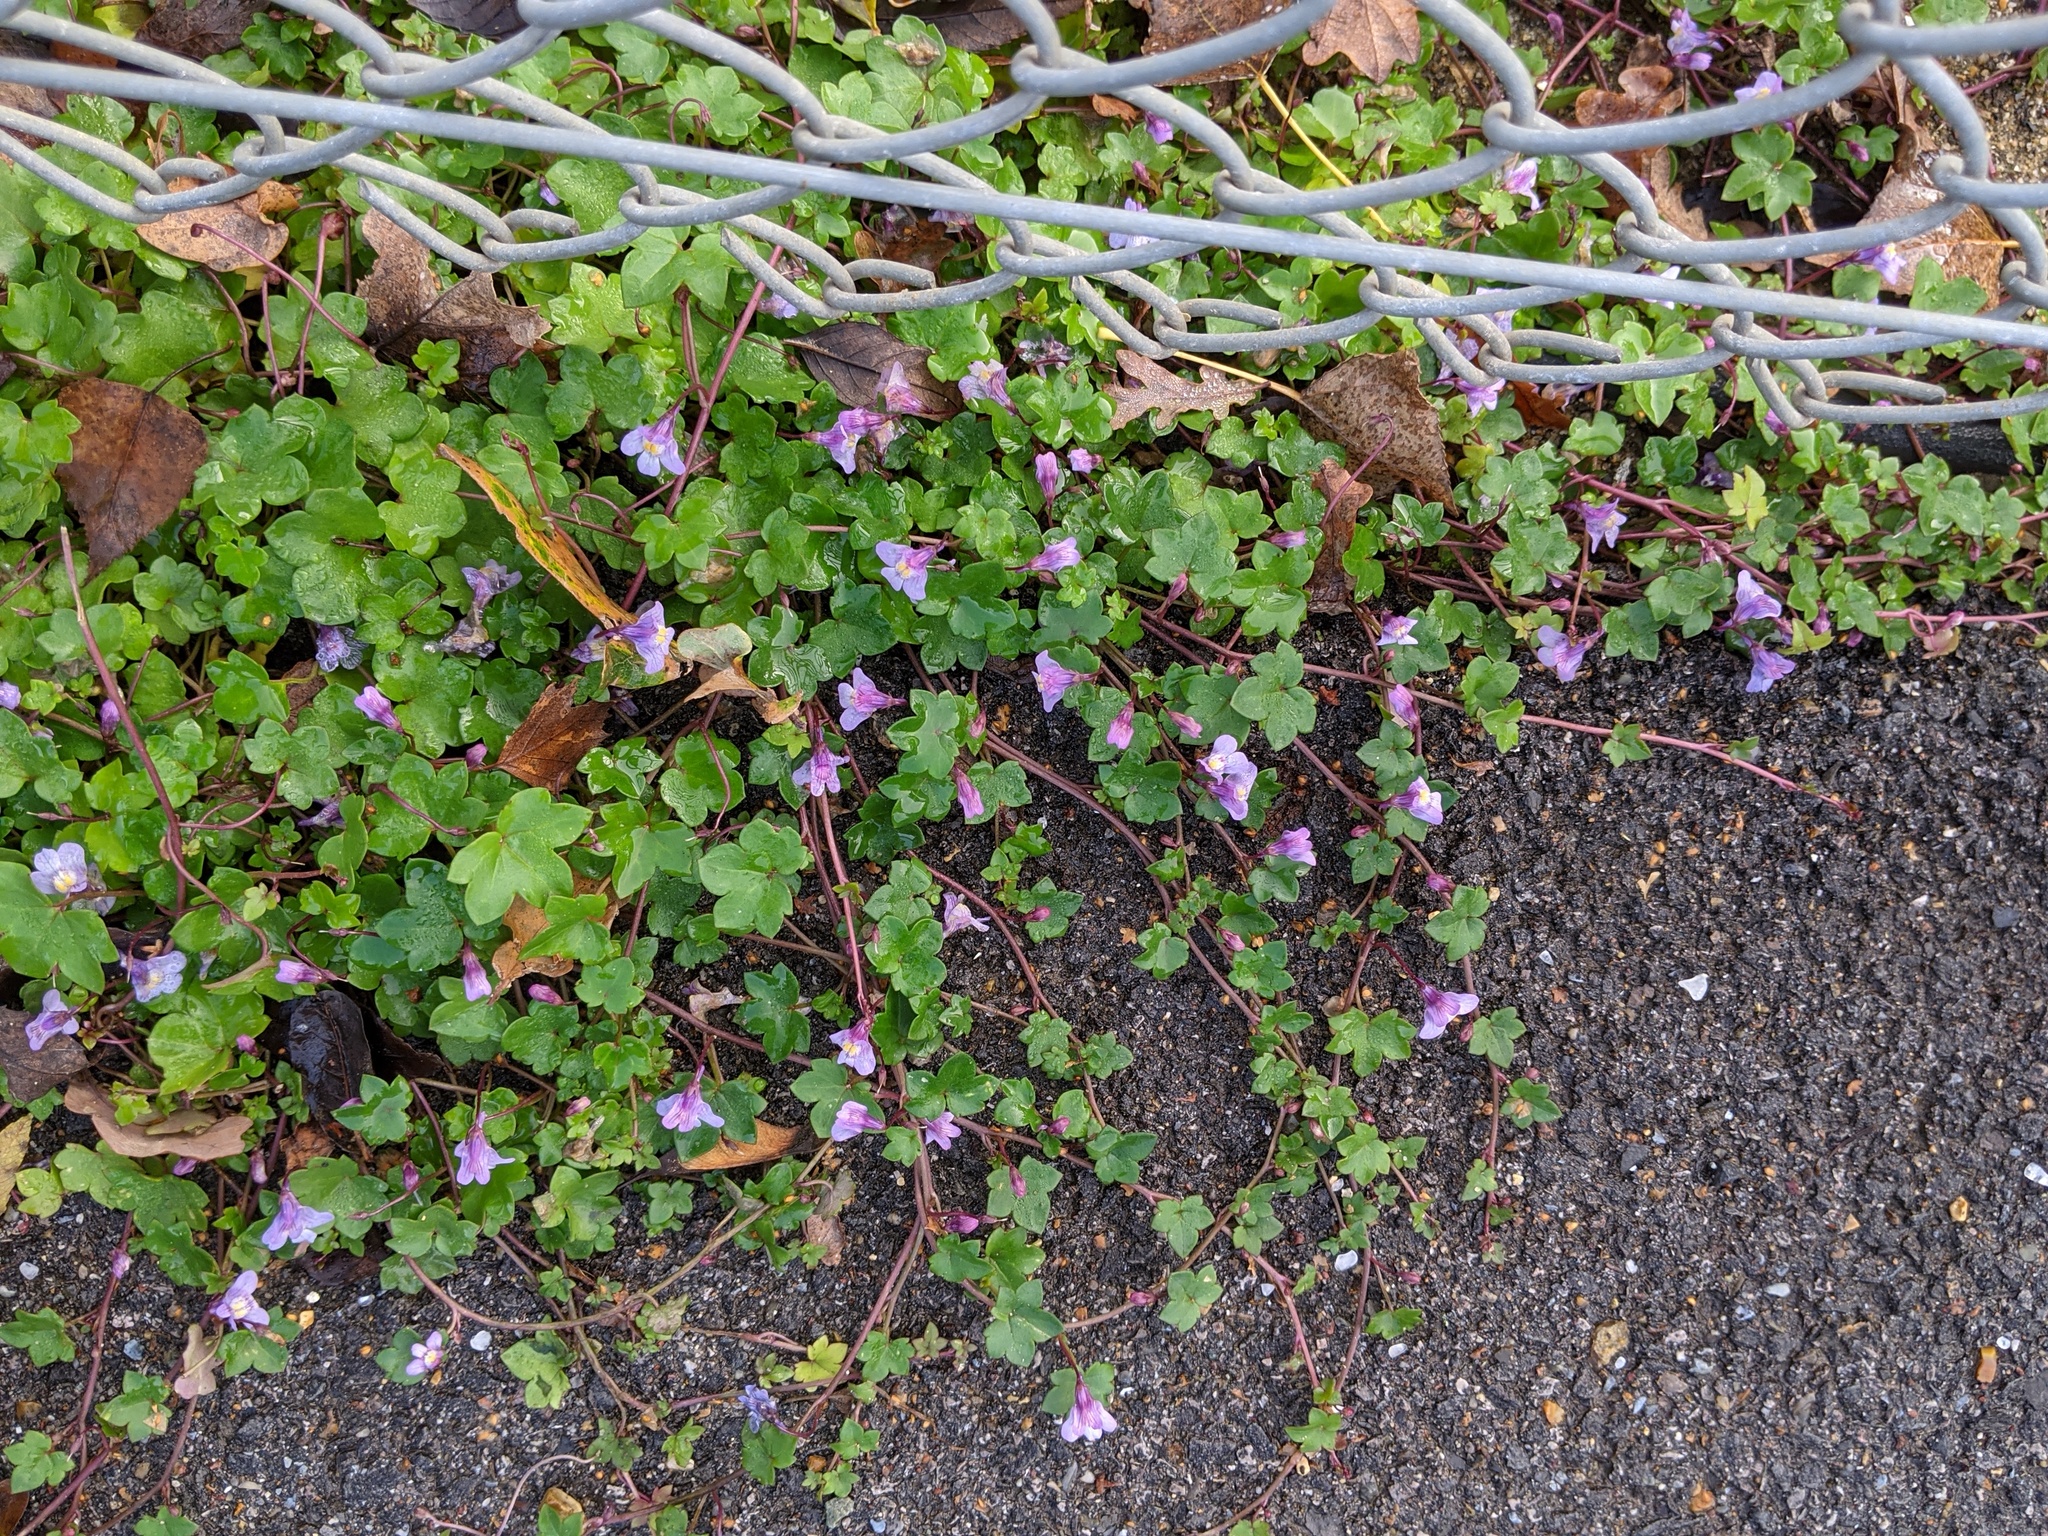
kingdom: Plantae
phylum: Tracheophyta
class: Magnoliopsida
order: Lamiales
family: Plantaginaceae
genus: Cymbalaria
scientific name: Cymbalaria muralis
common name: Ivy-leaved toadflax
